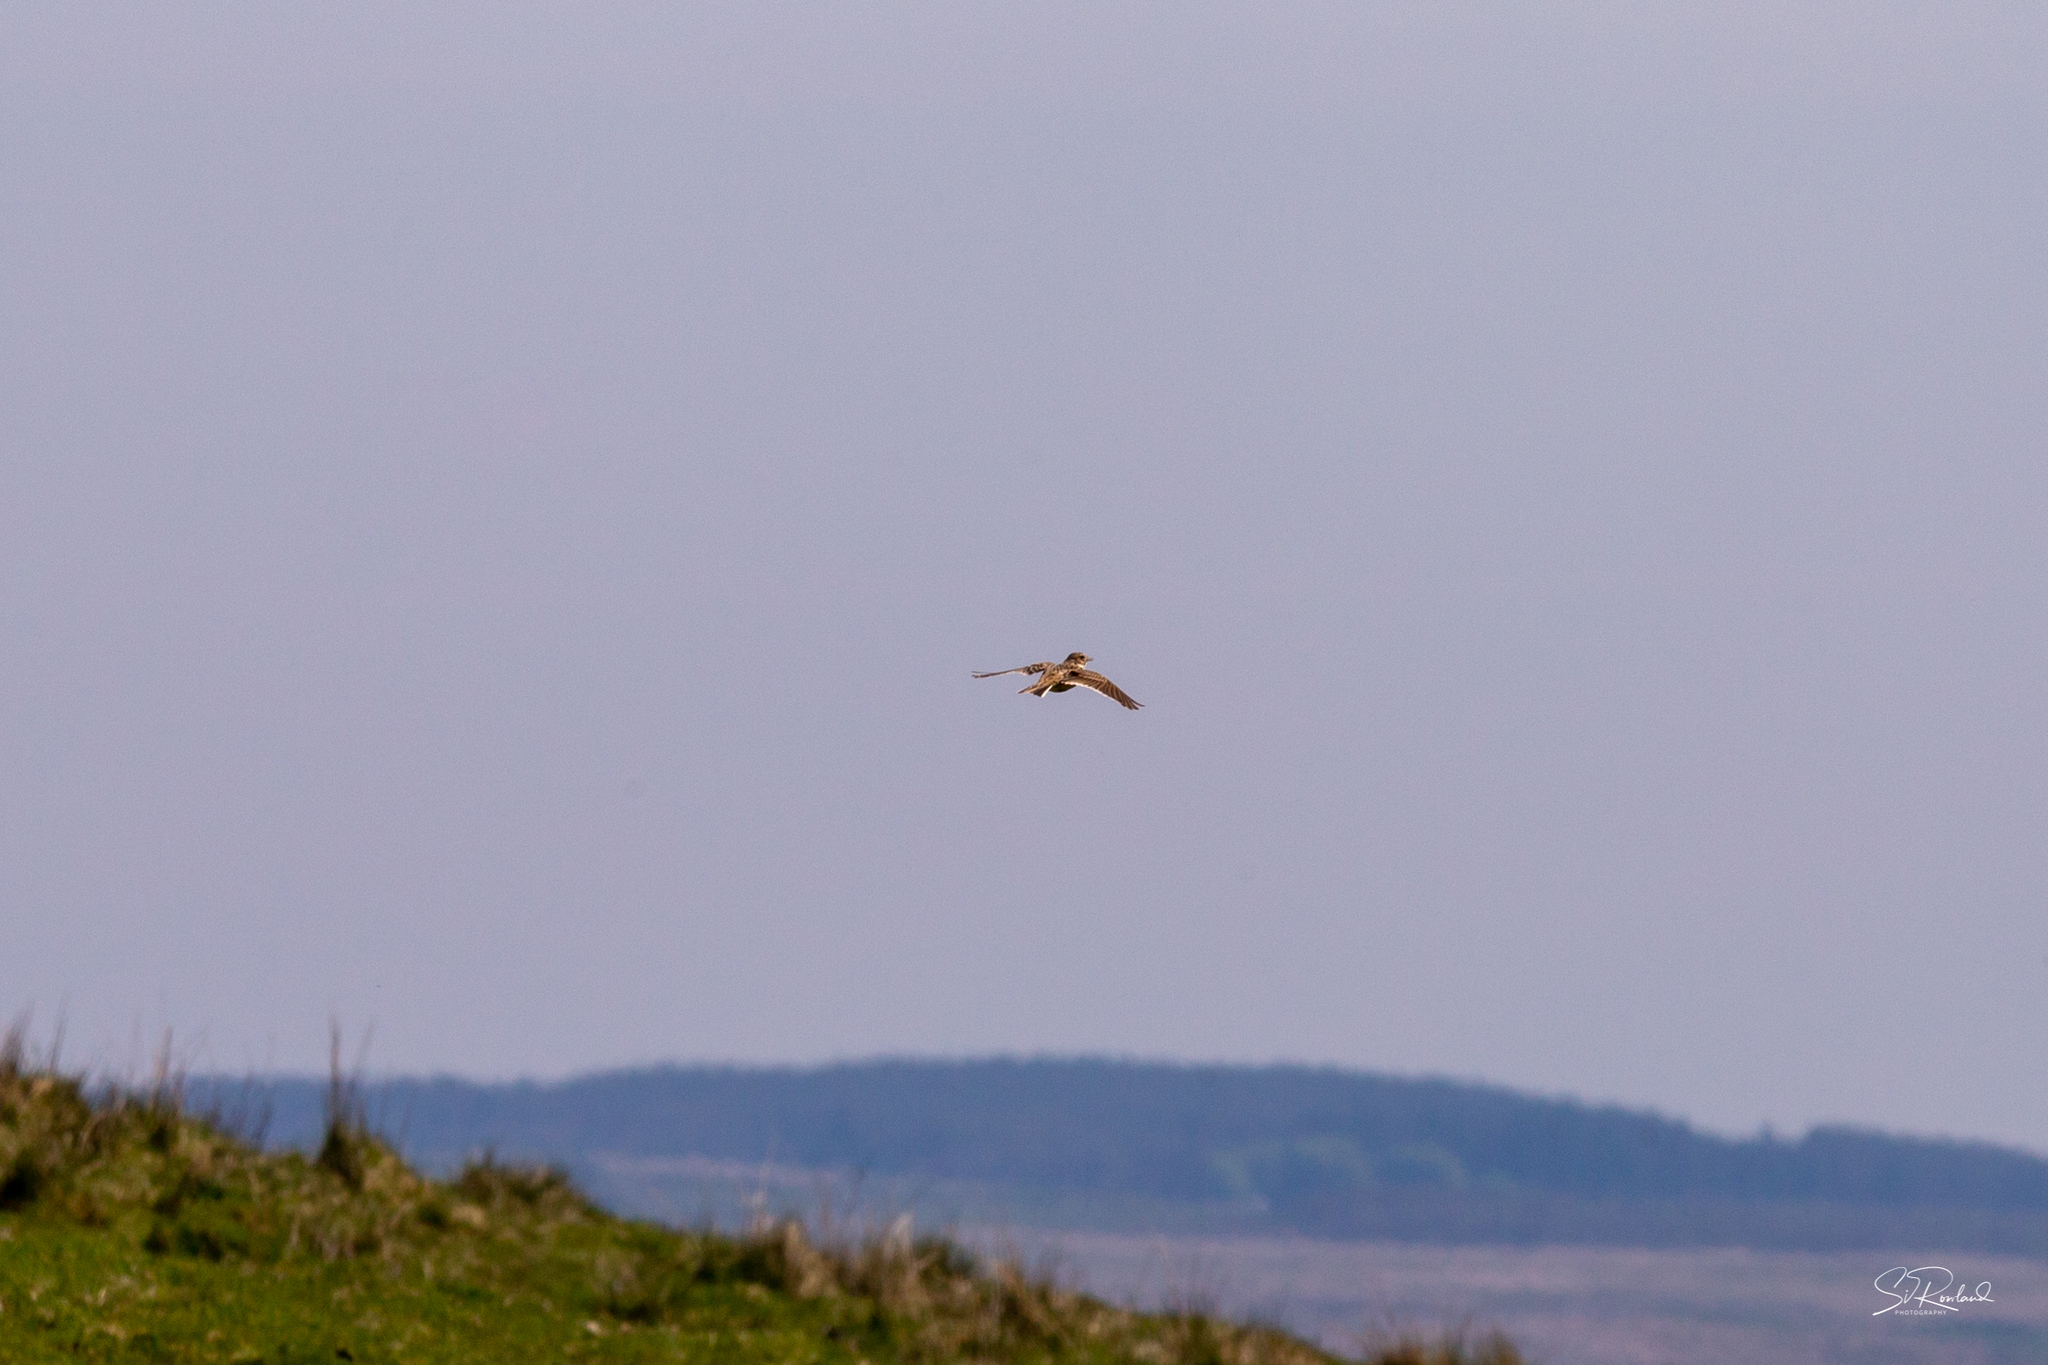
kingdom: Animalia
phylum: Chordata
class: Aves
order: Passeriformes
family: Alaudidae
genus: Alauda
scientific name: Alauda arvensis
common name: Eurasian skylark
